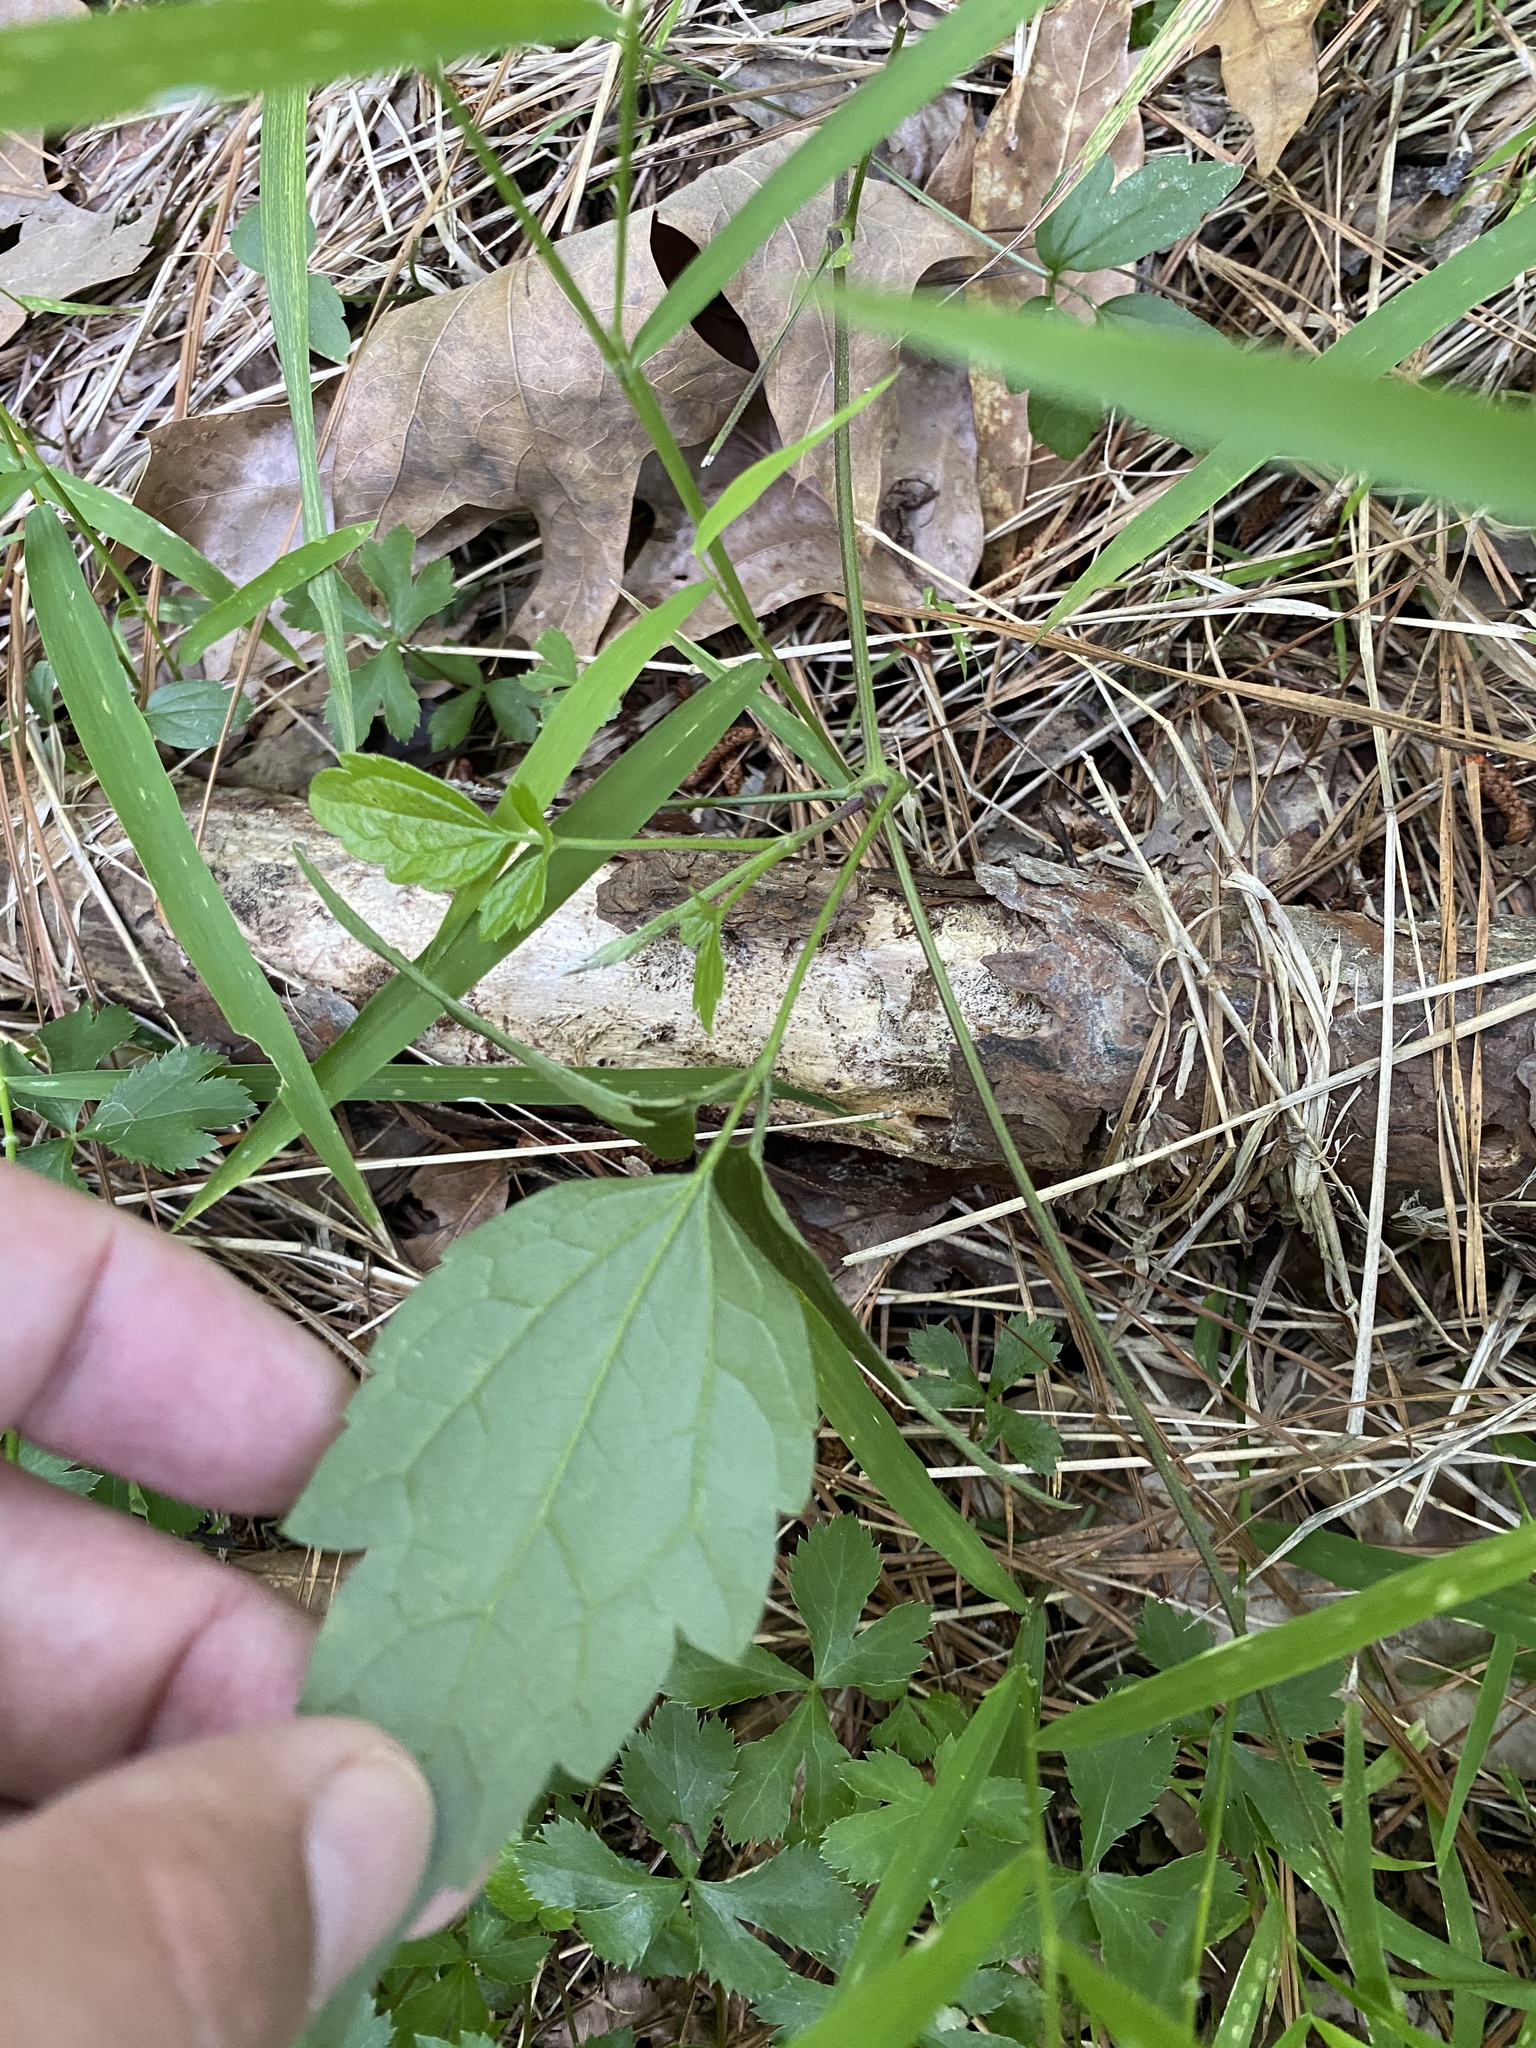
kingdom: Plantae
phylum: Tracheophyta
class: Magnoliopsida
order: Ranunculales
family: Ranunculaceae
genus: Clematis
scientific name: Clematis virginiana
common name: Virgin's-bower
